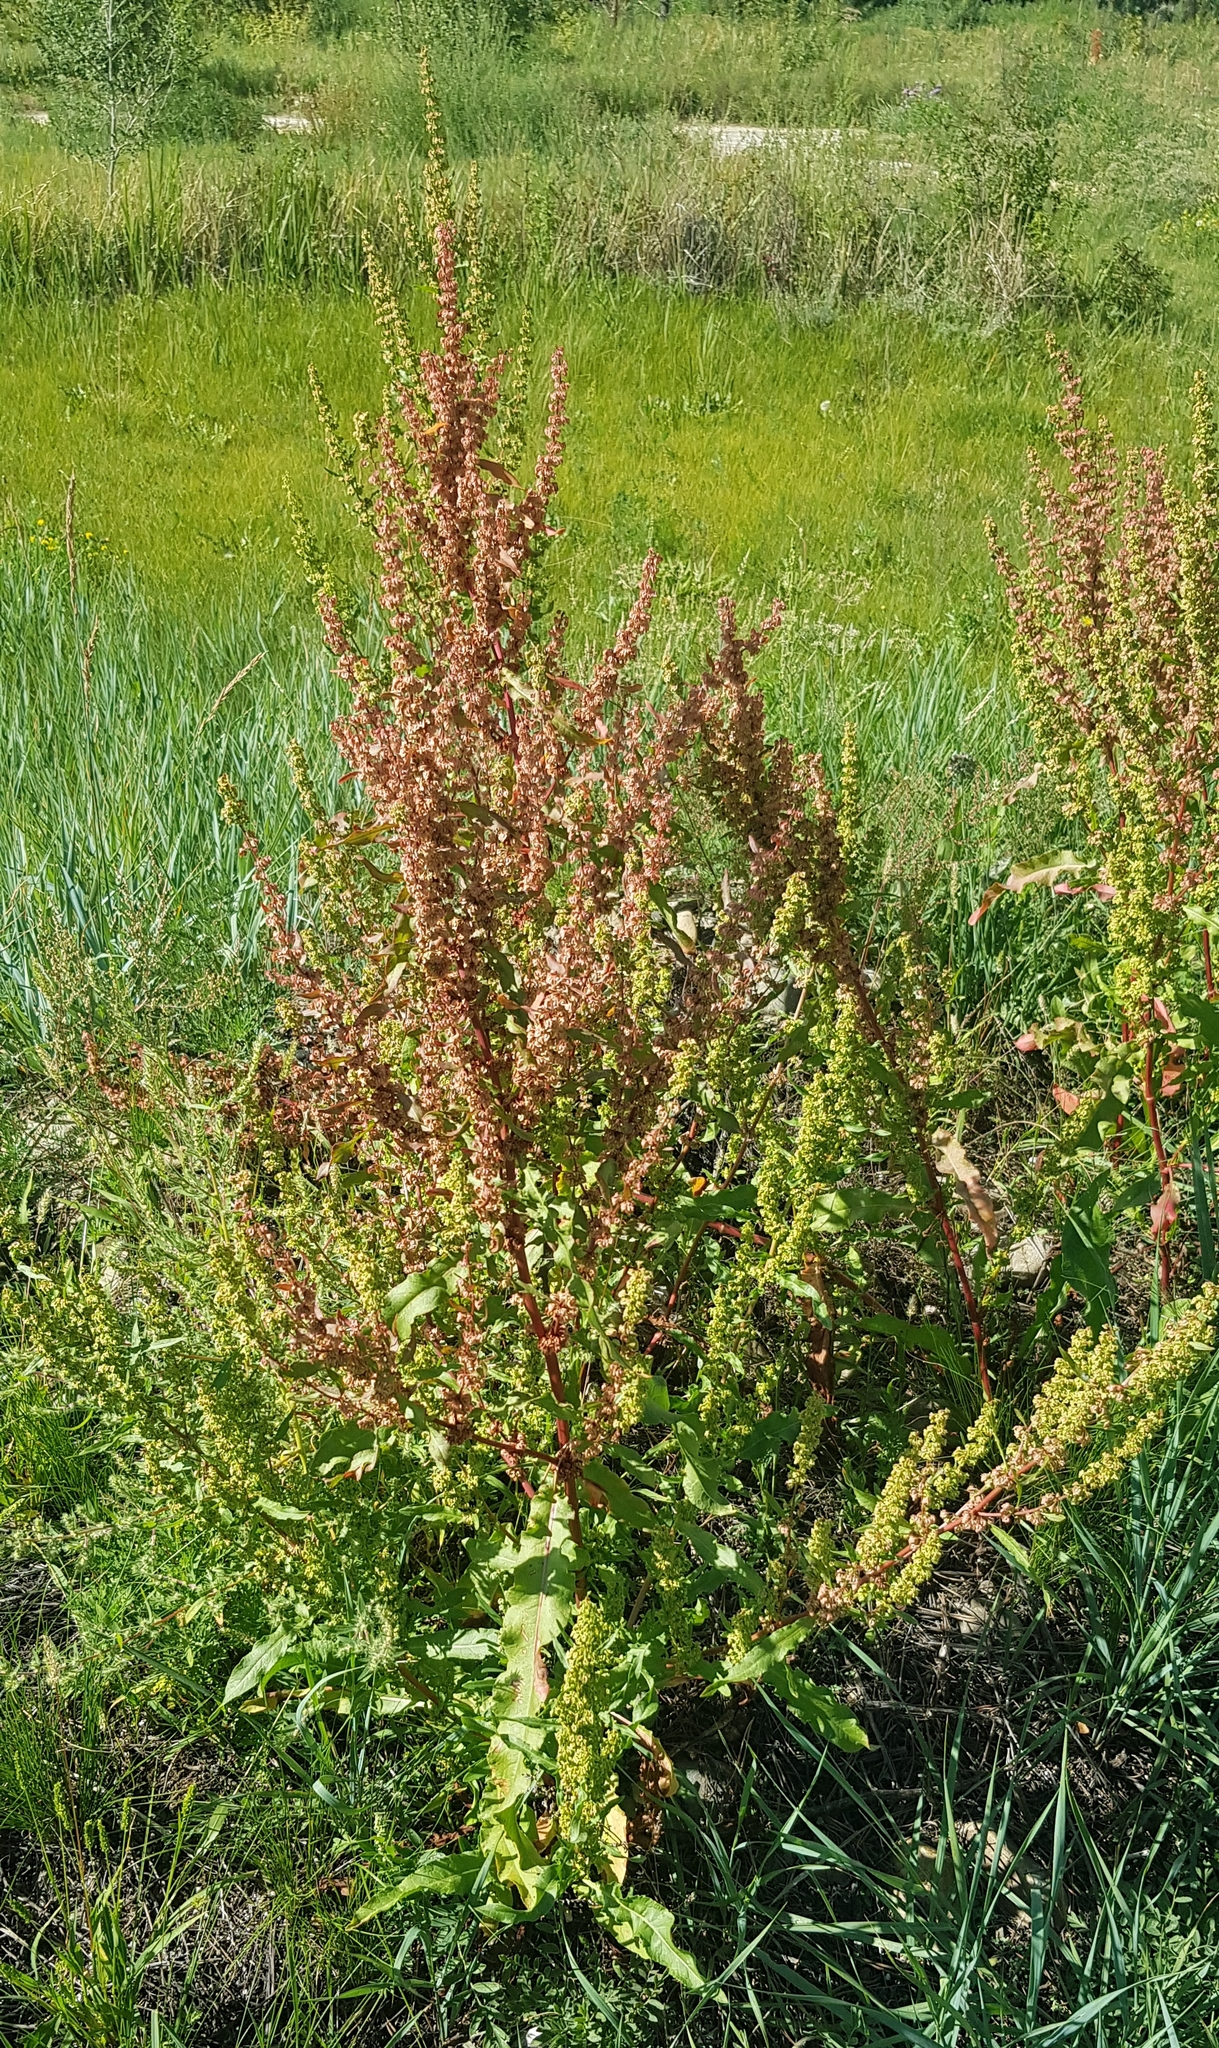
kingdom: Plantae
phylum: Tracheophyta
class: Magnoliopsida
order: Caryophyllales
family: Polygonaceae
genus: Rumex
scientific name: Rumex acetosa
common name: Garden sorrel
